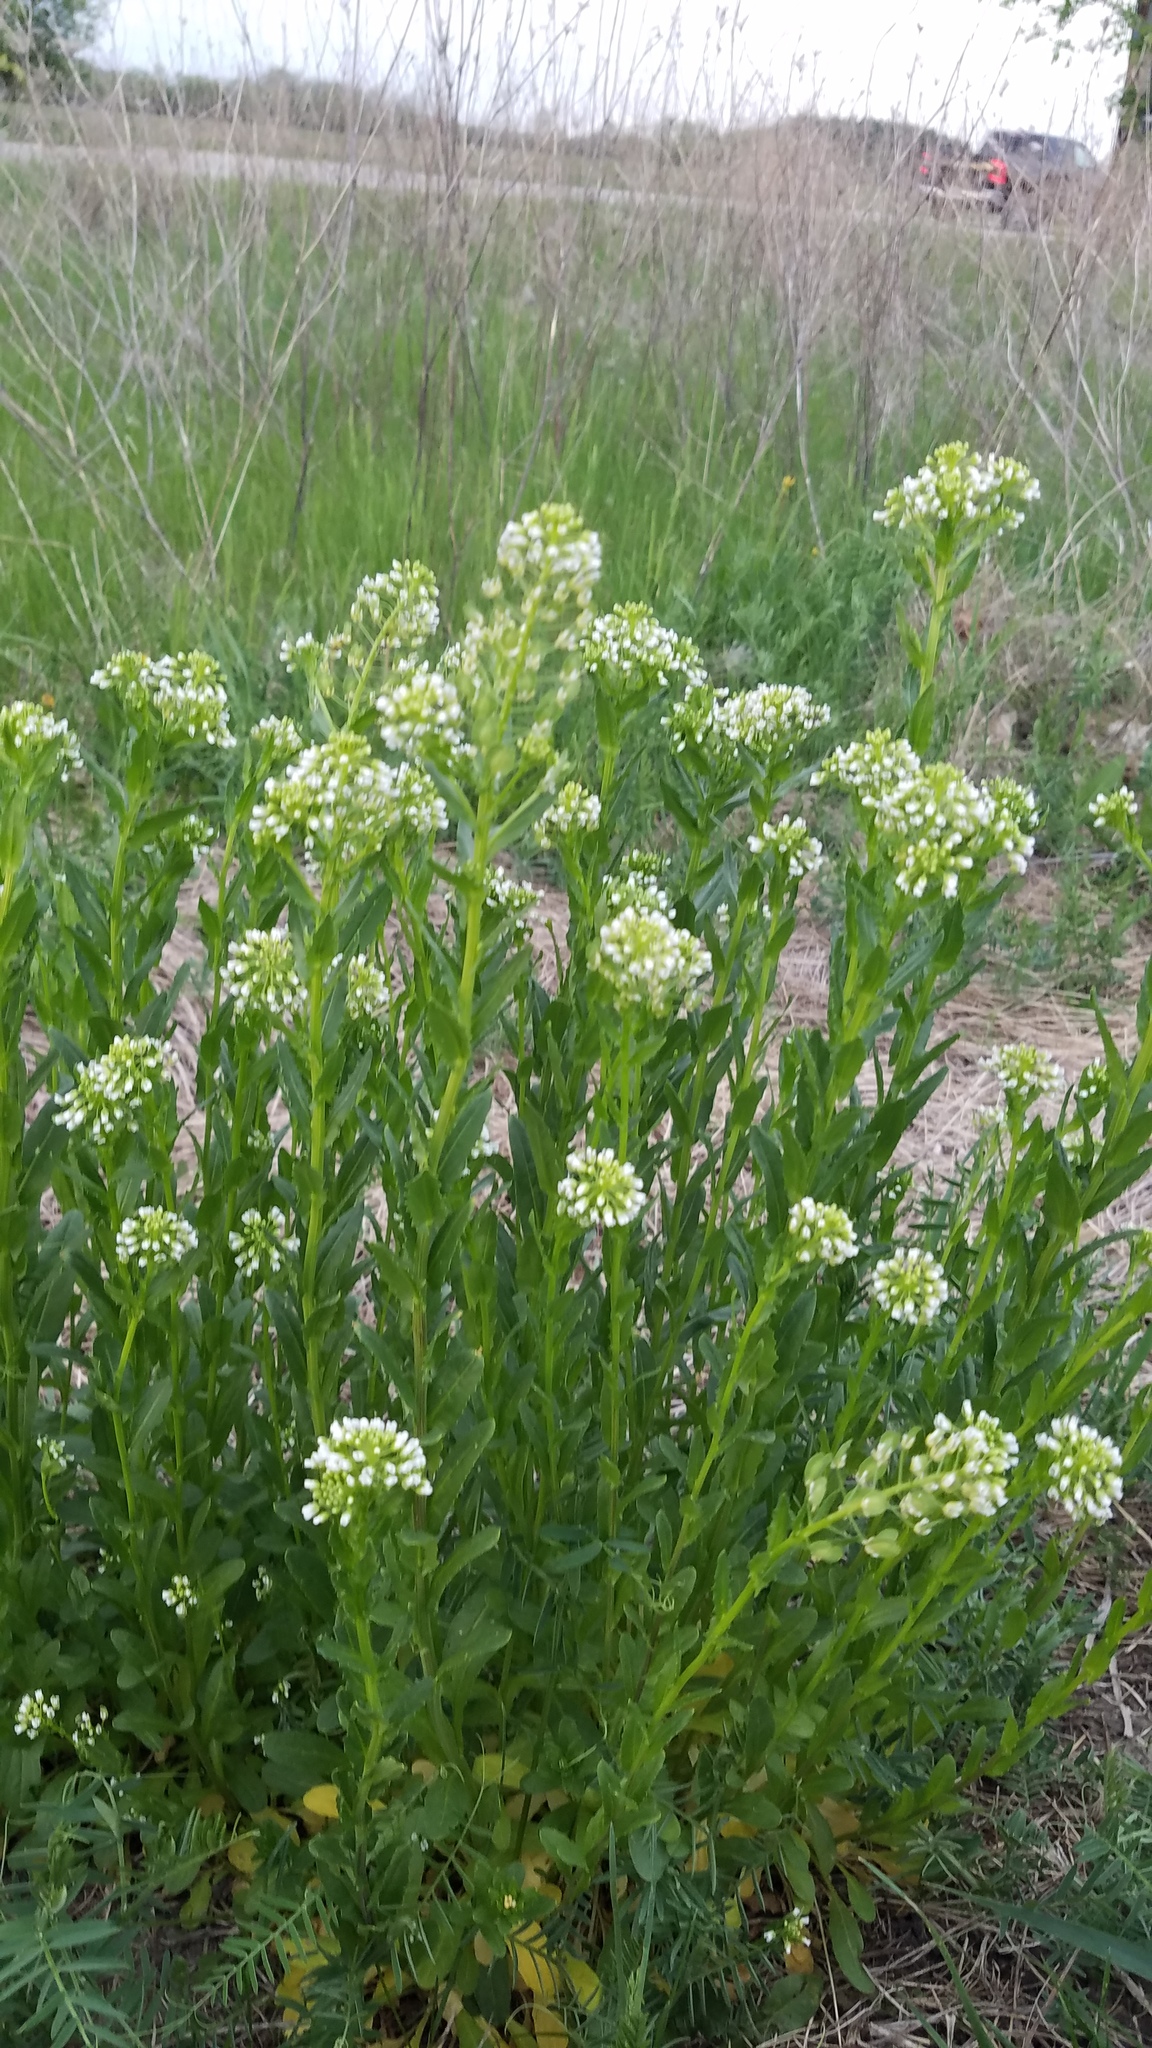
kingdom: Plantae
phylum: Tracheophyta
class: Magnoliopsida
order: Brassicales
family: Brassicaceae
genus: Thlaspi
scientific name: Thlaspi arvense
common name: Field pennycress
